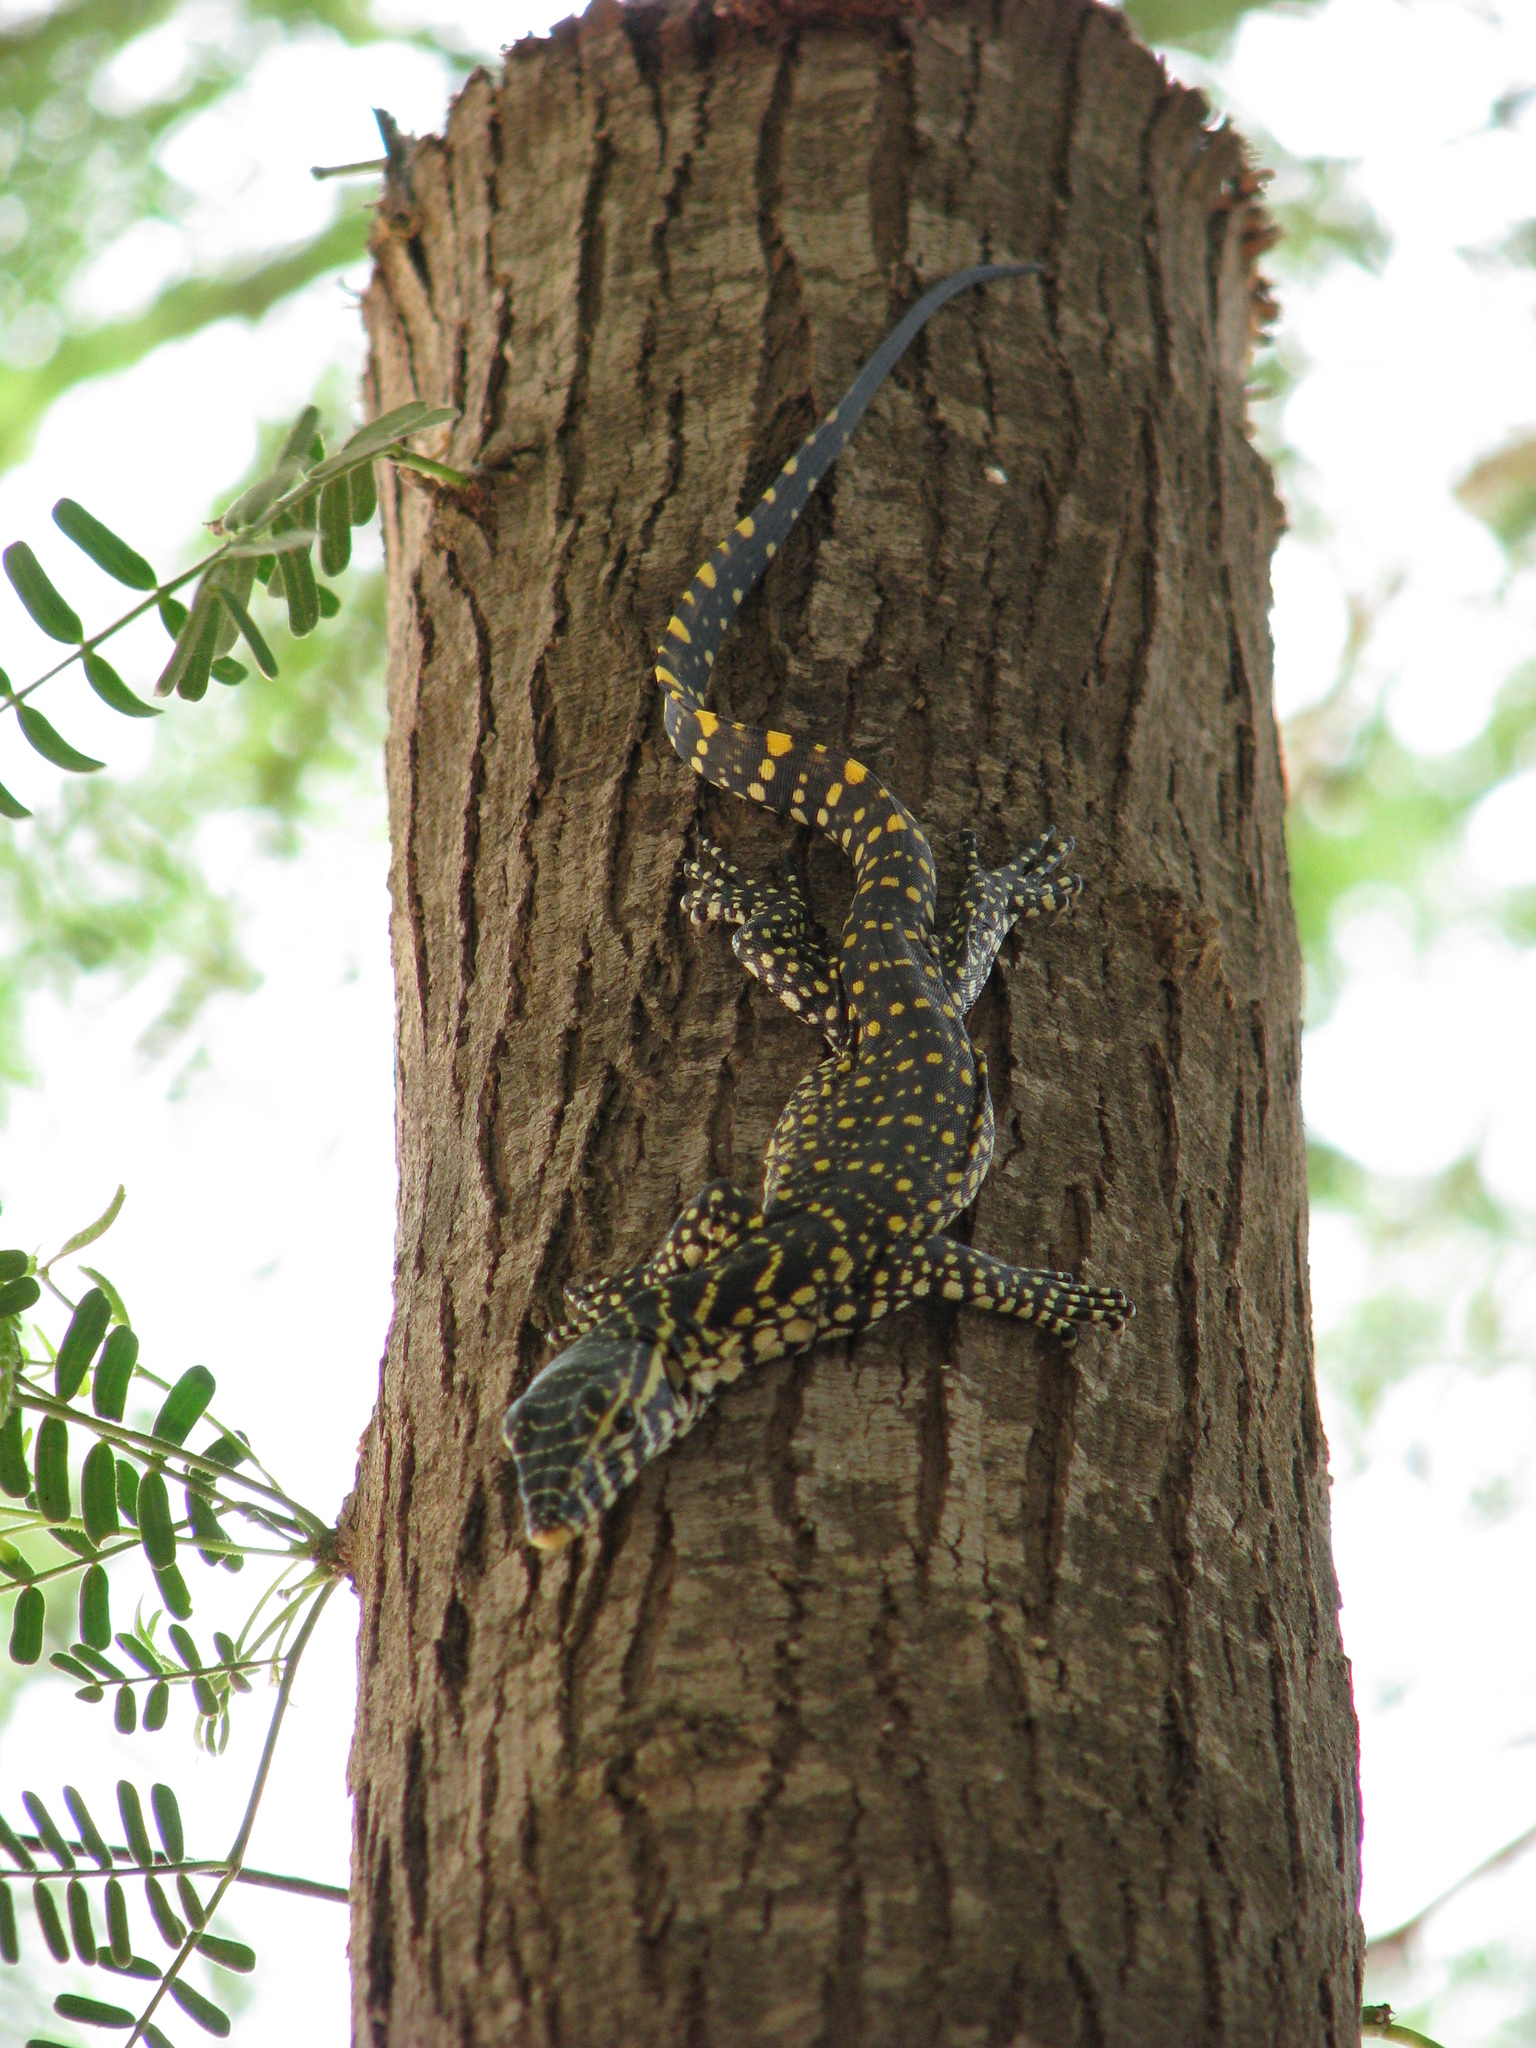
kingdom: Animalia
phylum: Chordata
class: Squamata
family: Varanidae
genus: Varanus
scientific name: Varanus niloticus
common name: Nile monitor
